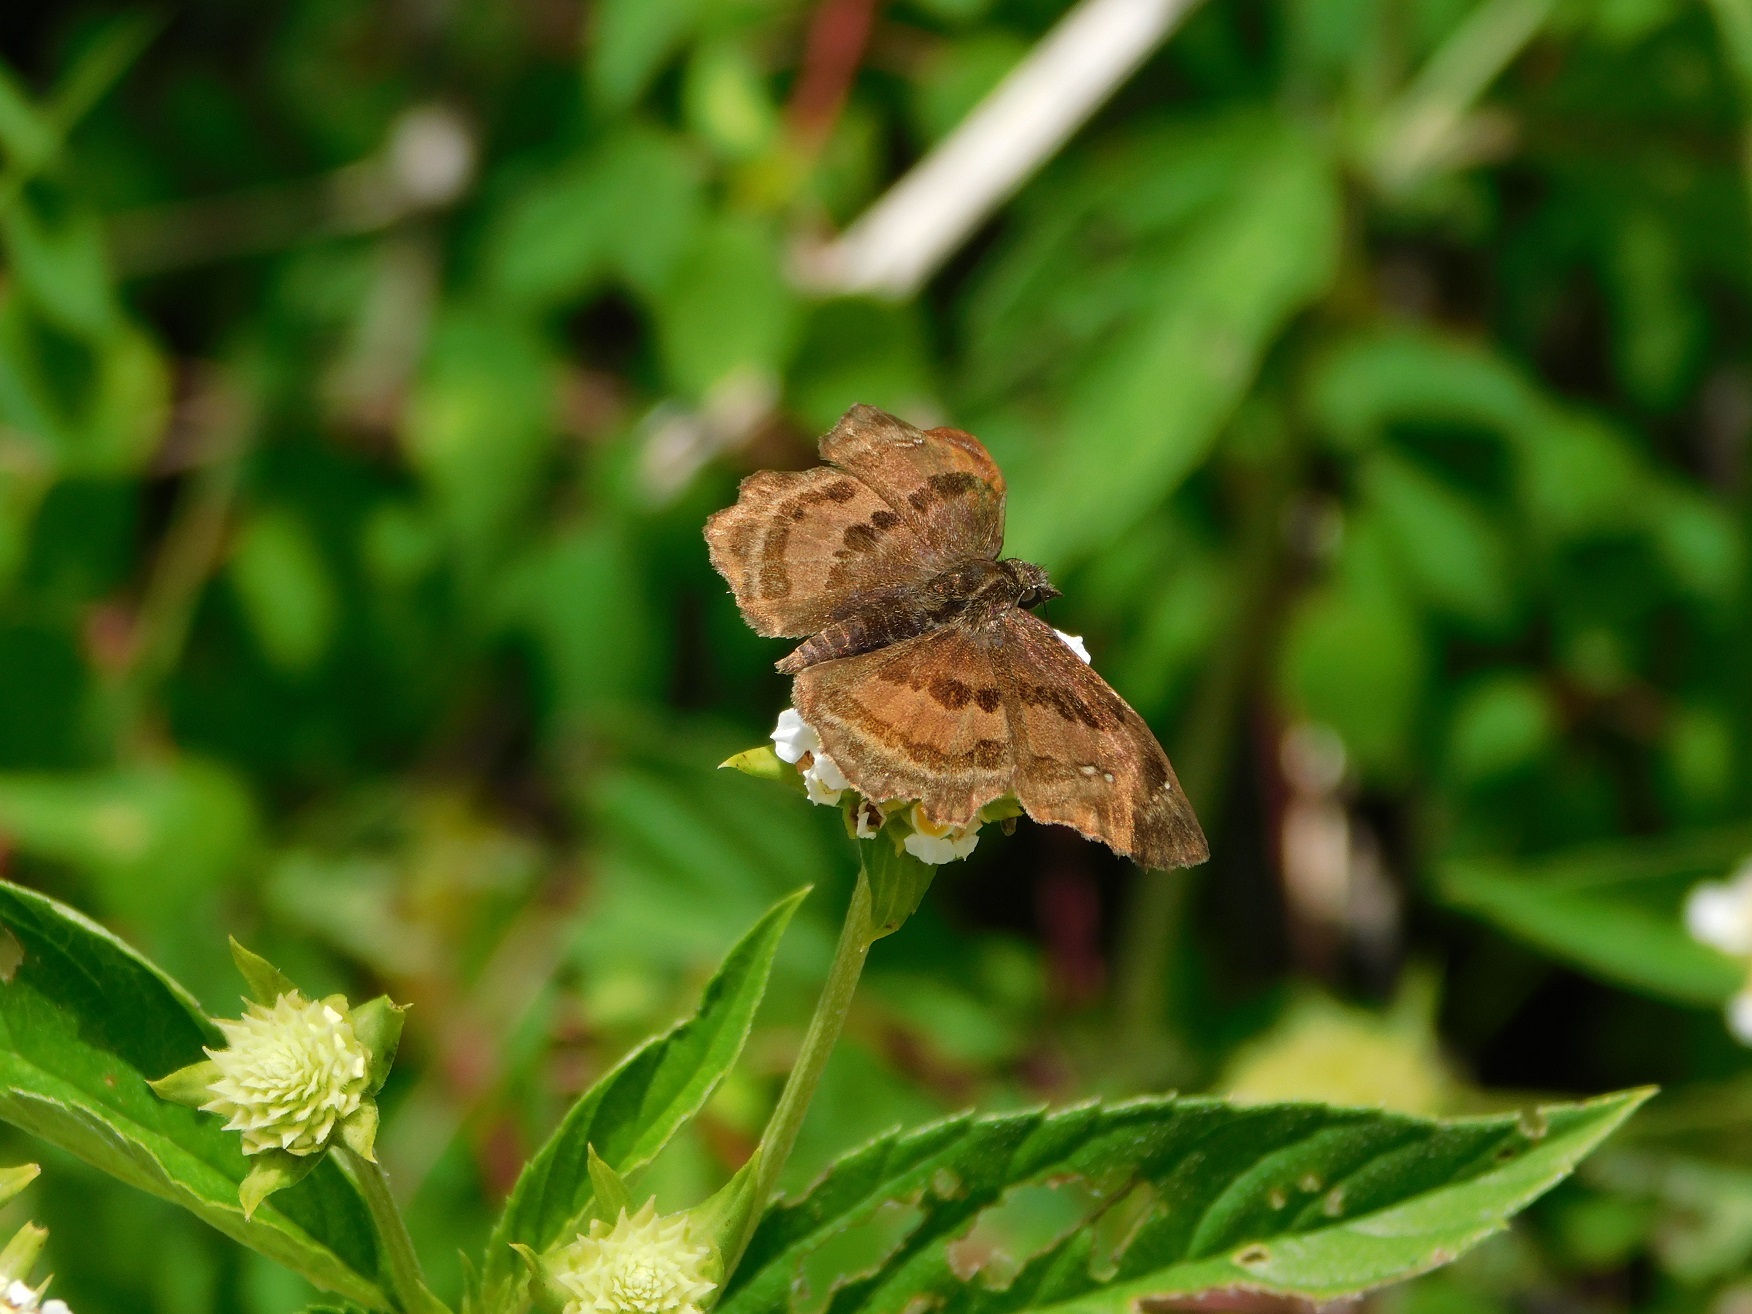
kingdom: Animalia
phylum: Arthropoda
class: Insecta
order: Lepidoptera
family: Hesperiidae
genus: Systaspes
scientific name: Systaspes
